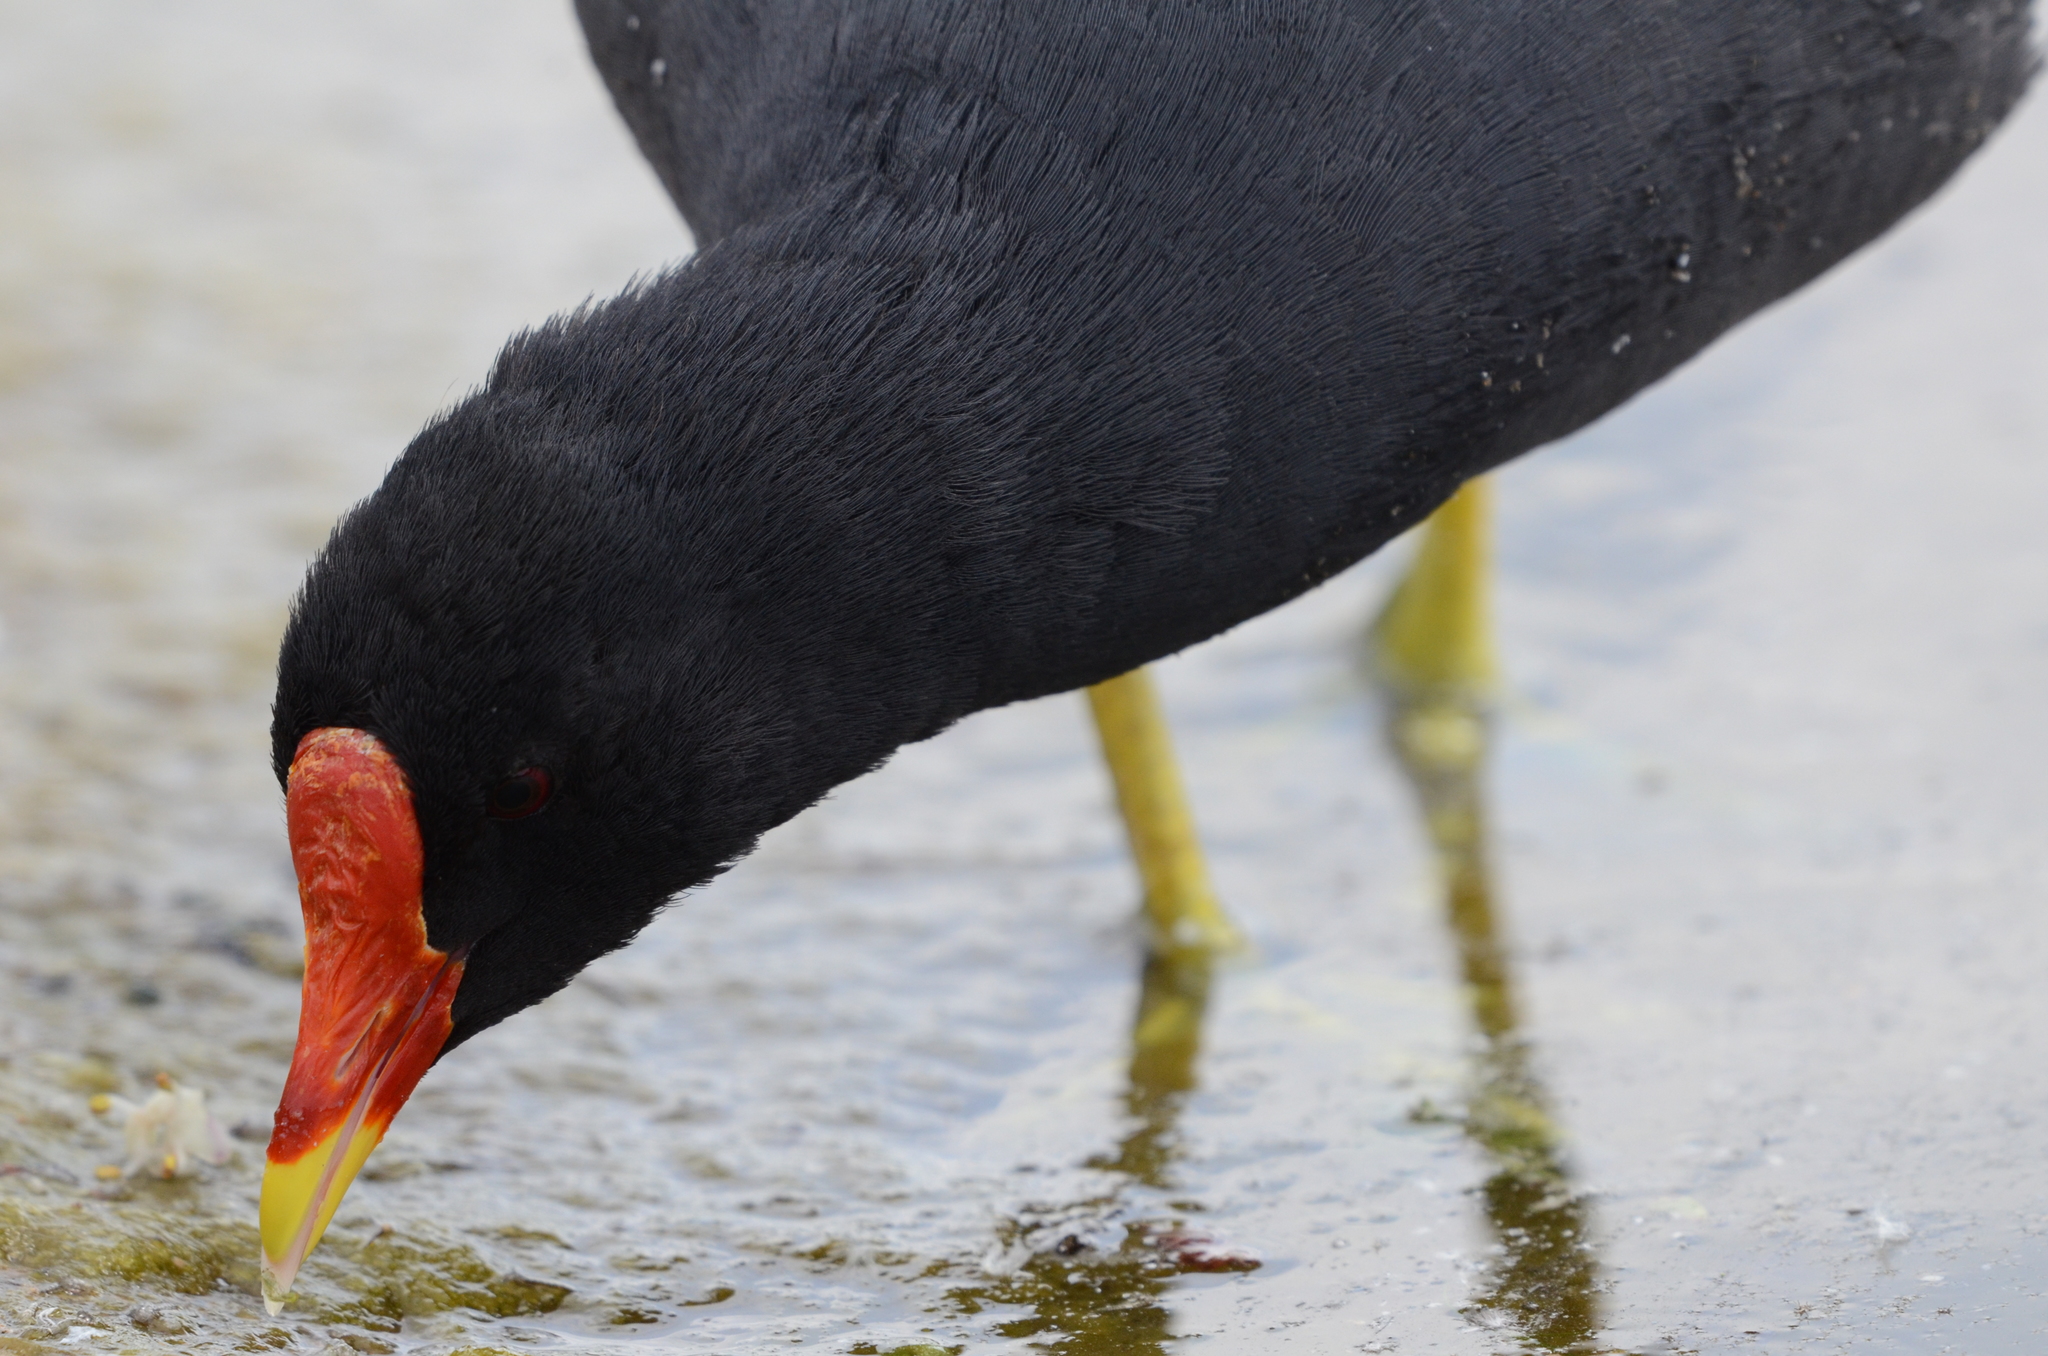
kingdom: Animalia
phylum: Chordata
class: Aves
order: Gruiformes
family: Rallidae
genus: Gallinula
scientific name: Gallinula chloropus
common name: Common moorhen
